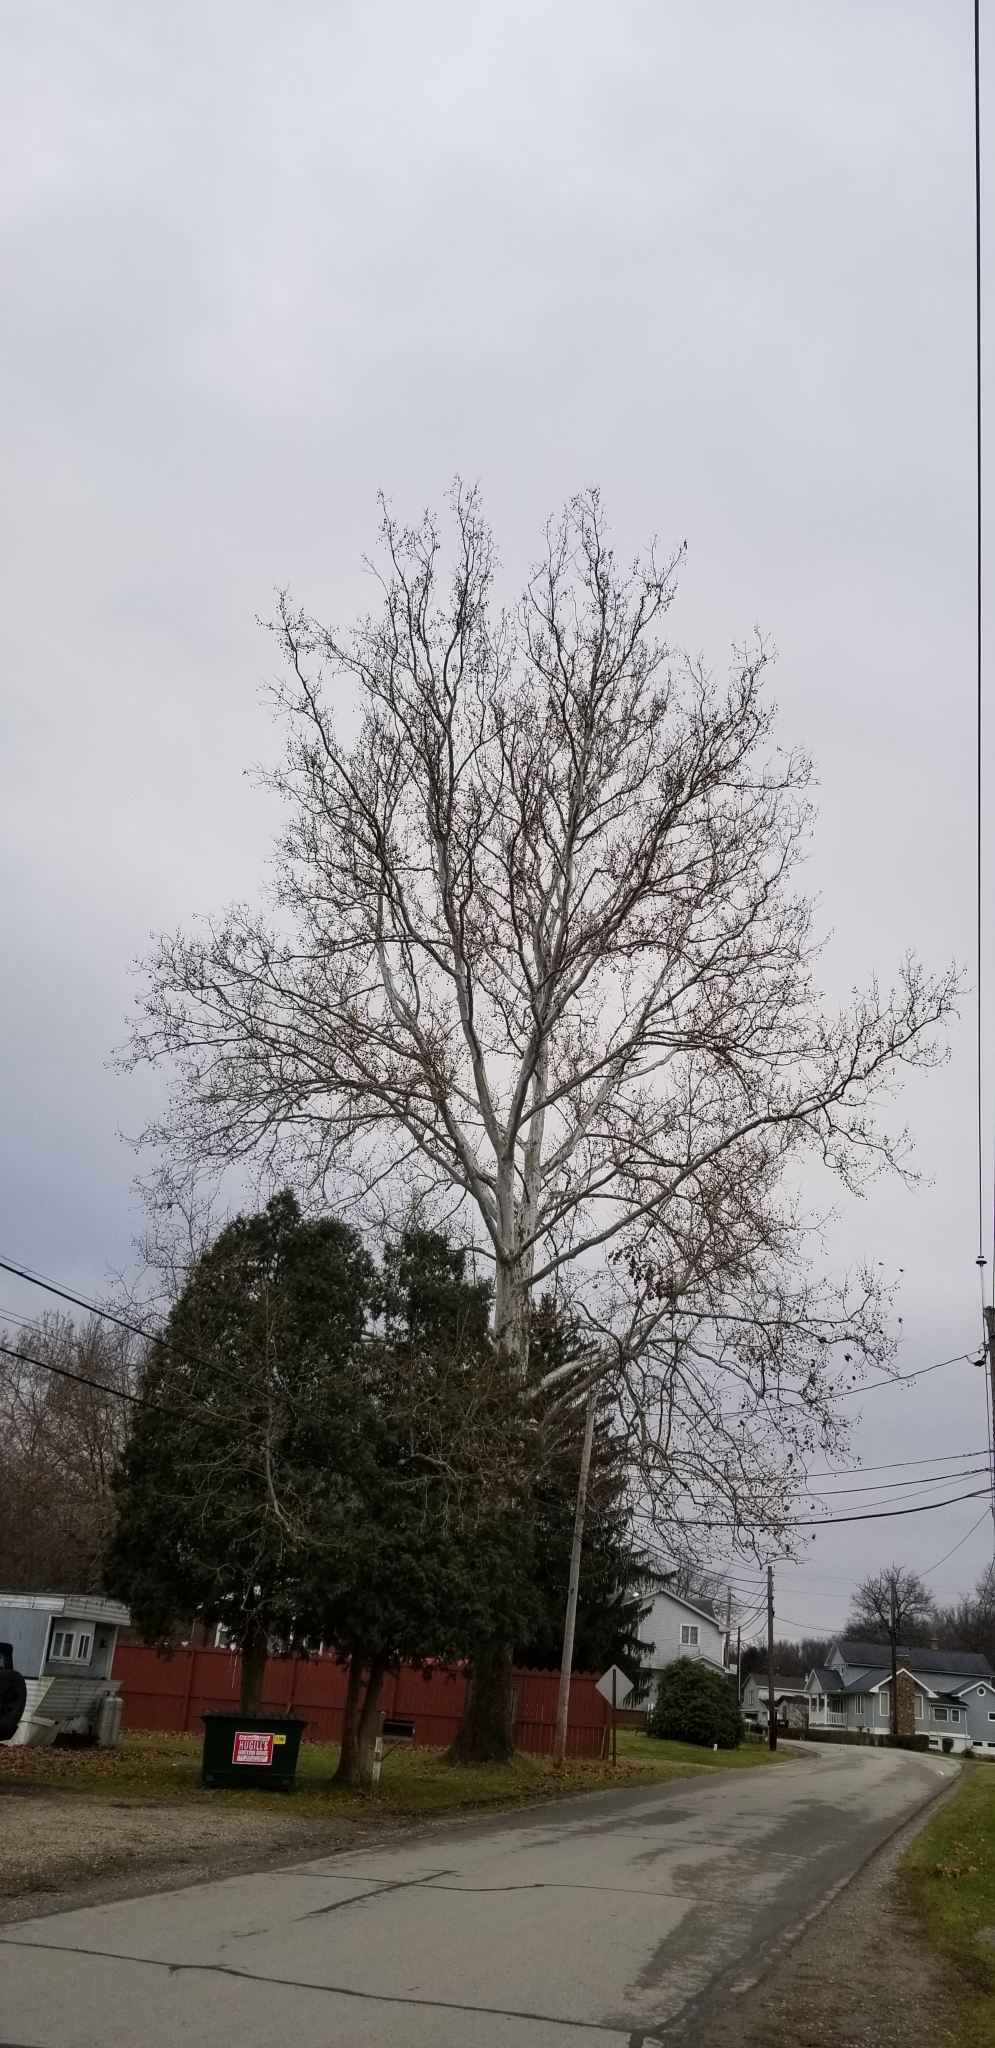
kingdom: Plantae
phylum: Tracheophyta
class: Magnoliopsida
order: Proteales
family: Platanaceae
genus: Platanus
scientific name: Platanus occidentalis
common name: American sycamore
